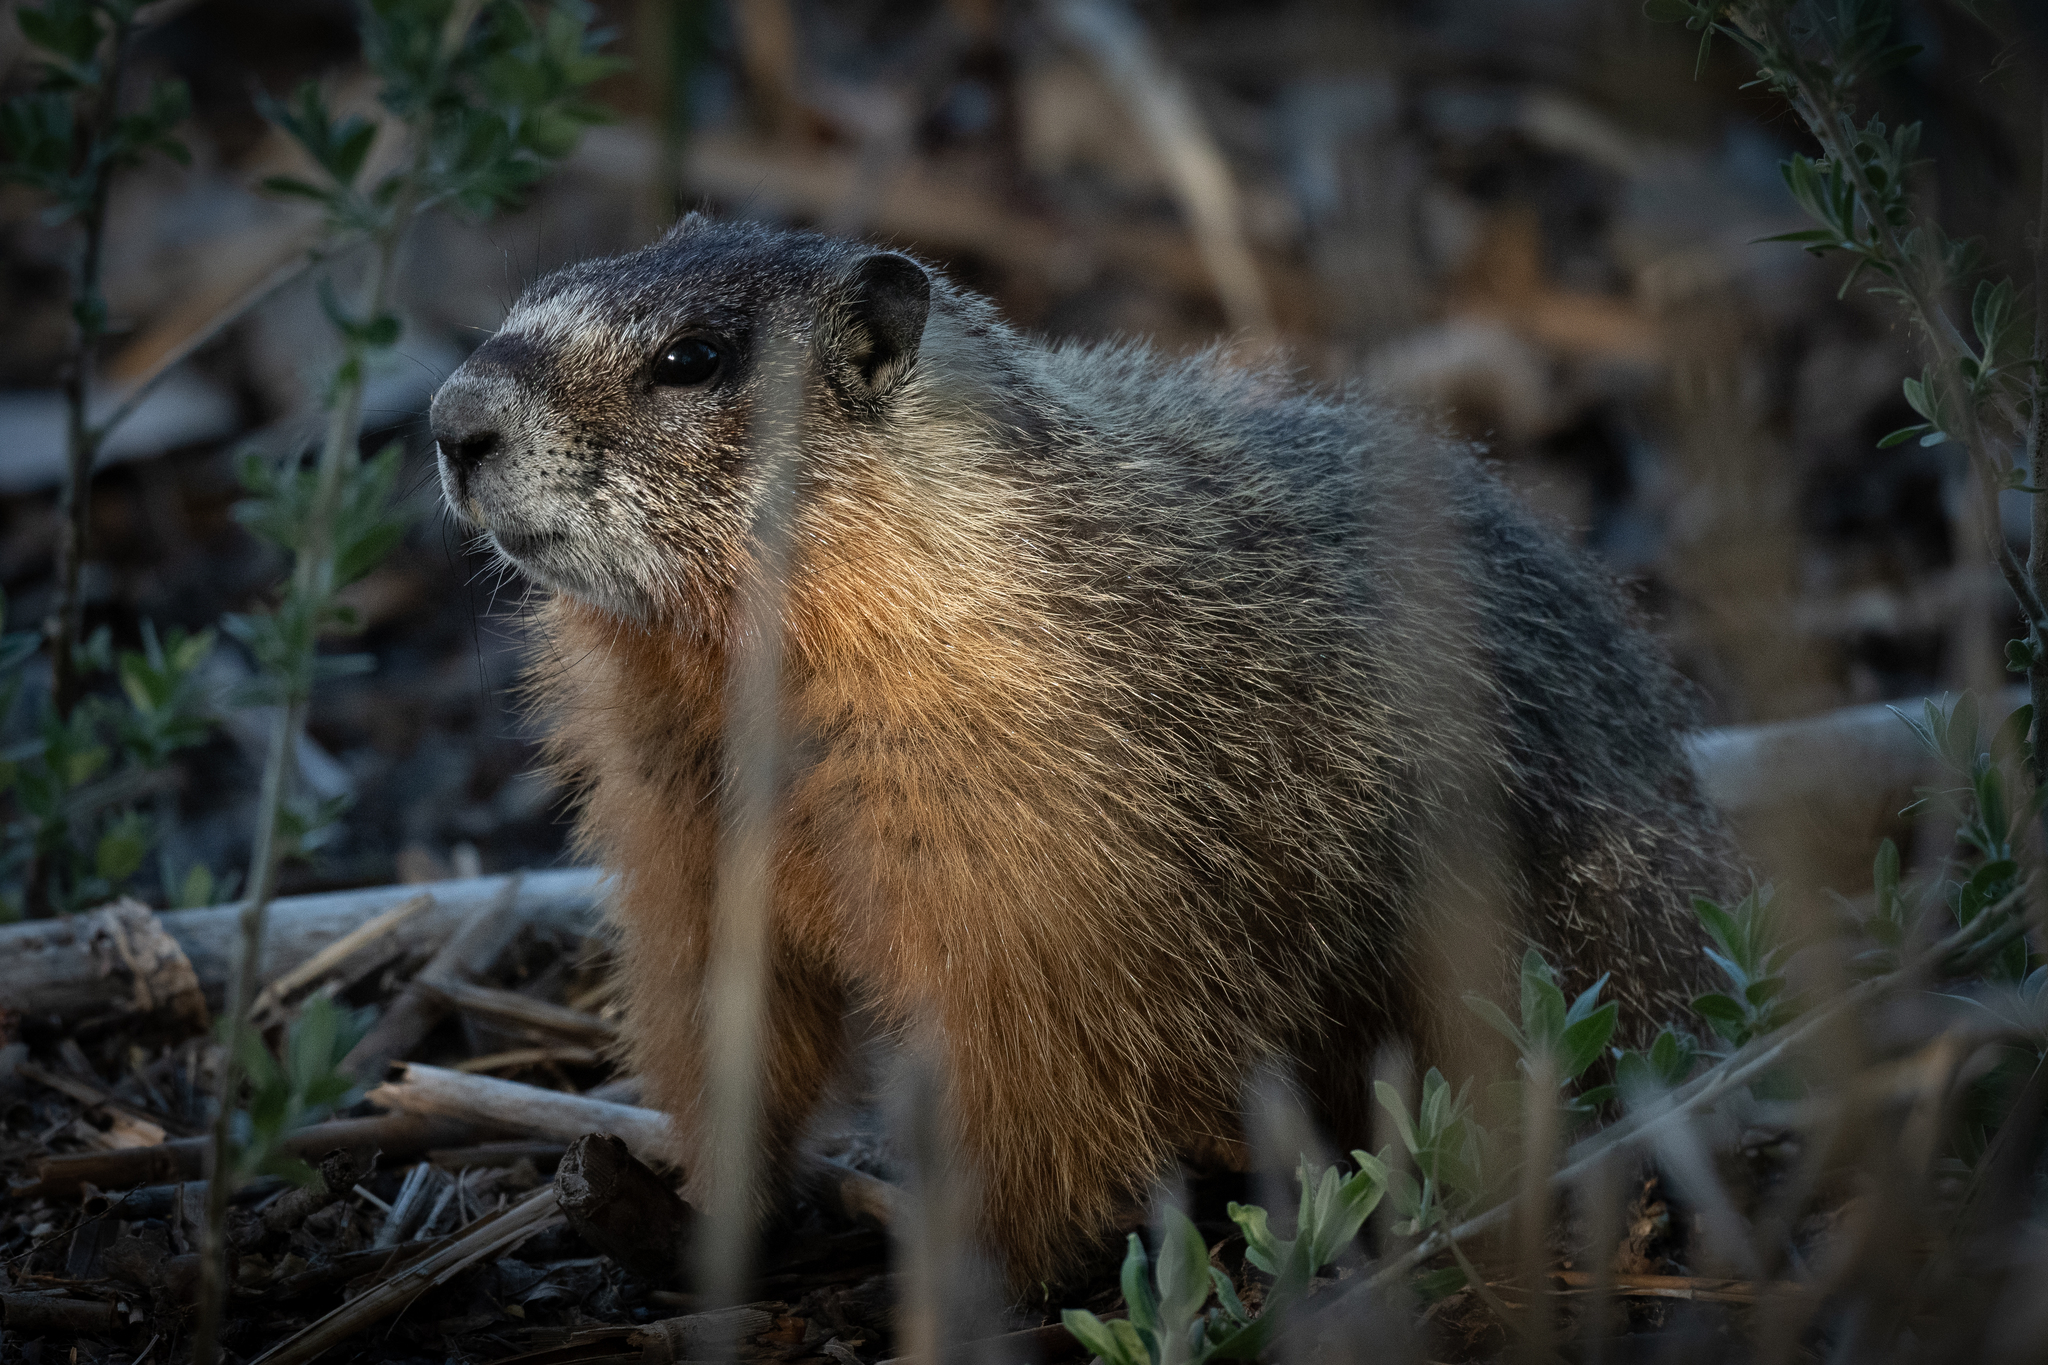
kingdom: Animalia
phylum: Chordata
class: Mammalia
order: Rodentia
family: Sciuridae
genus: Marmota
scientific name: Marmota flaviventris
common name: Yellow-bellied marmot
